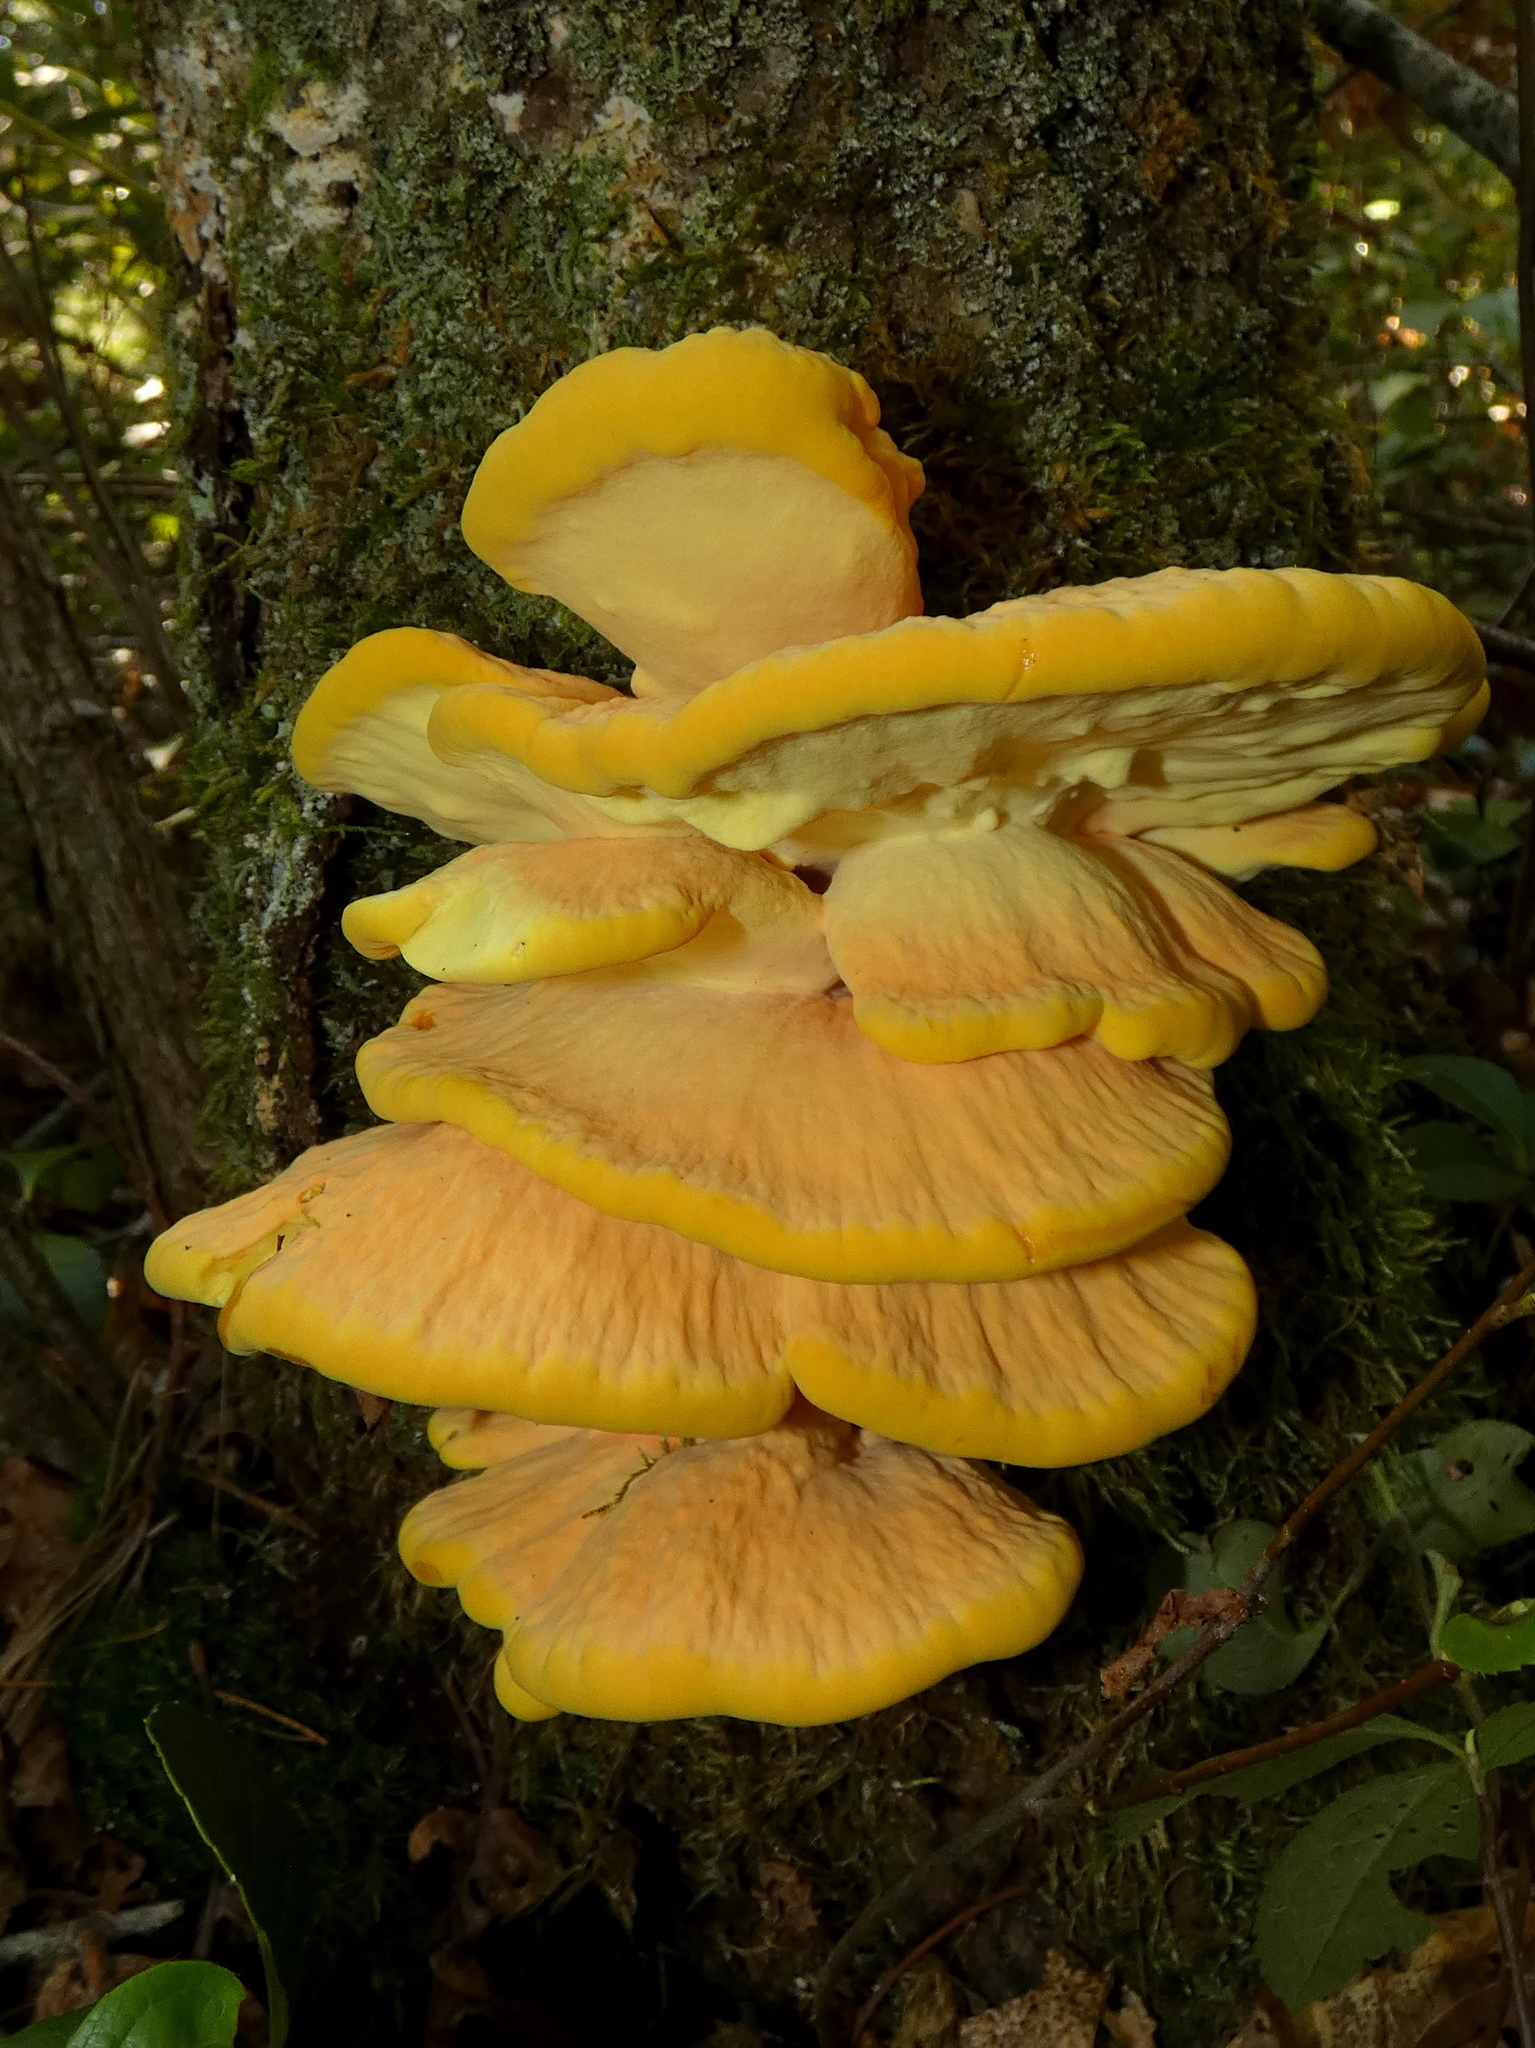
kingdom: Fungi
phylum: Basidiomycota
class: Agaricomycetes
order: Polyporales
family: Laetiporaceae
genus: Laetiporus
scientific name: Laetiporus sulphureus
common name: Chicken of the woods
